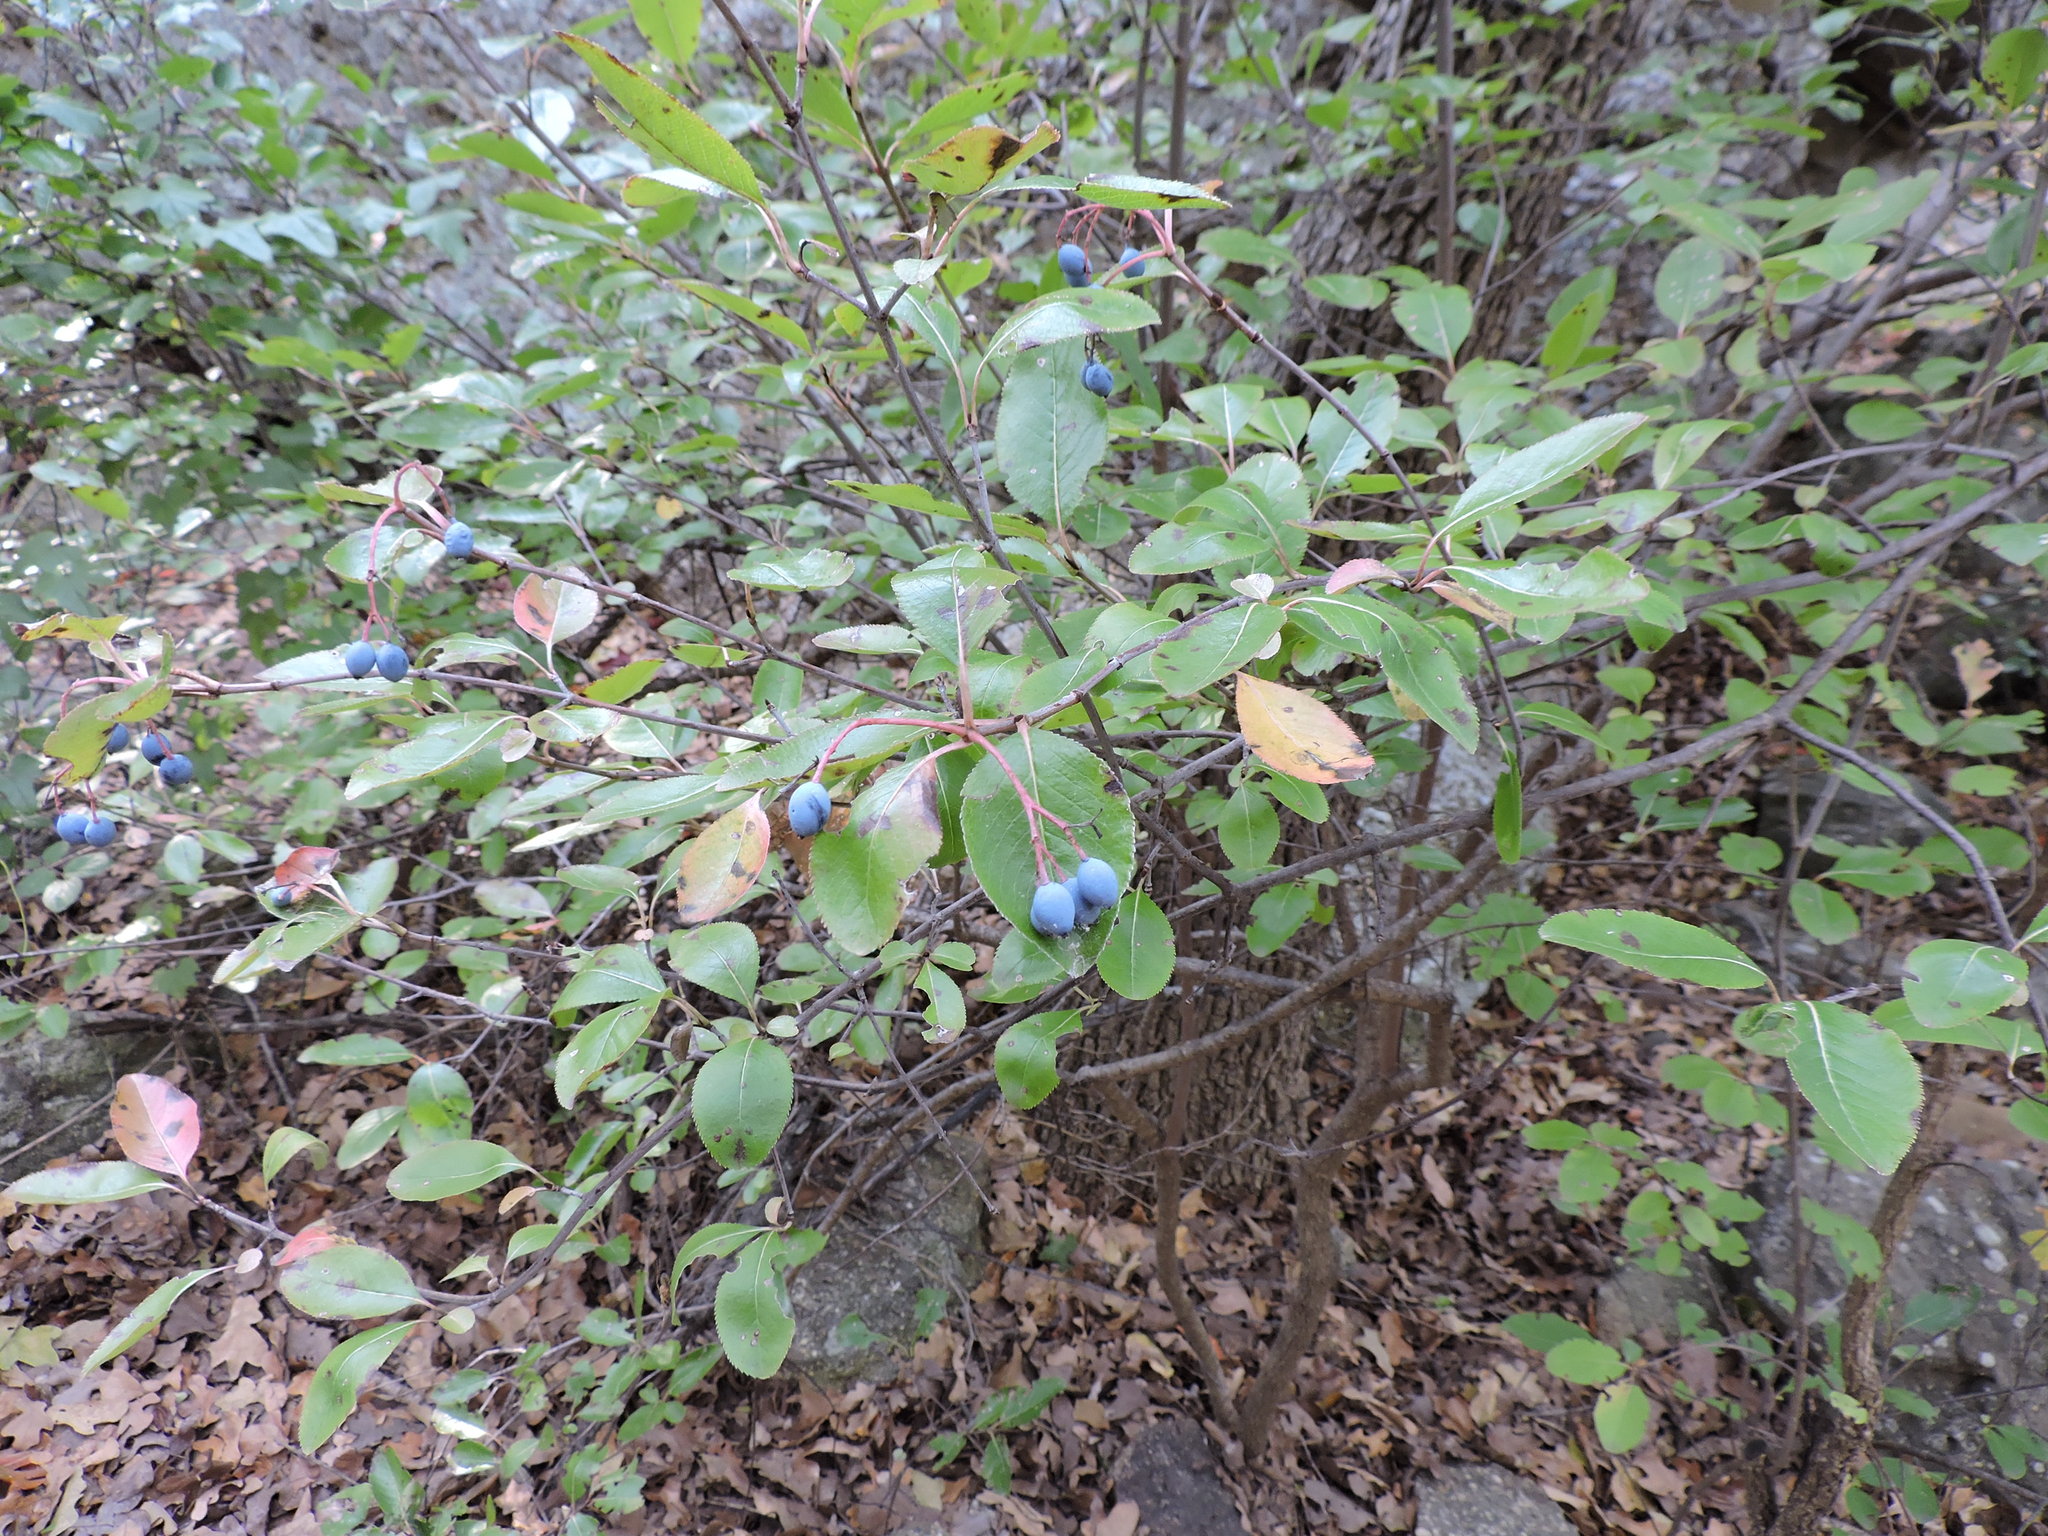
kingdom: Plantae
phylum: Tracheophyta
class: Magnoliopsida
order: Dipsacales
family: Viburnaceae
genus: Viburnum
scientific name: Viburnum rufidulum
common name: Blue haw
